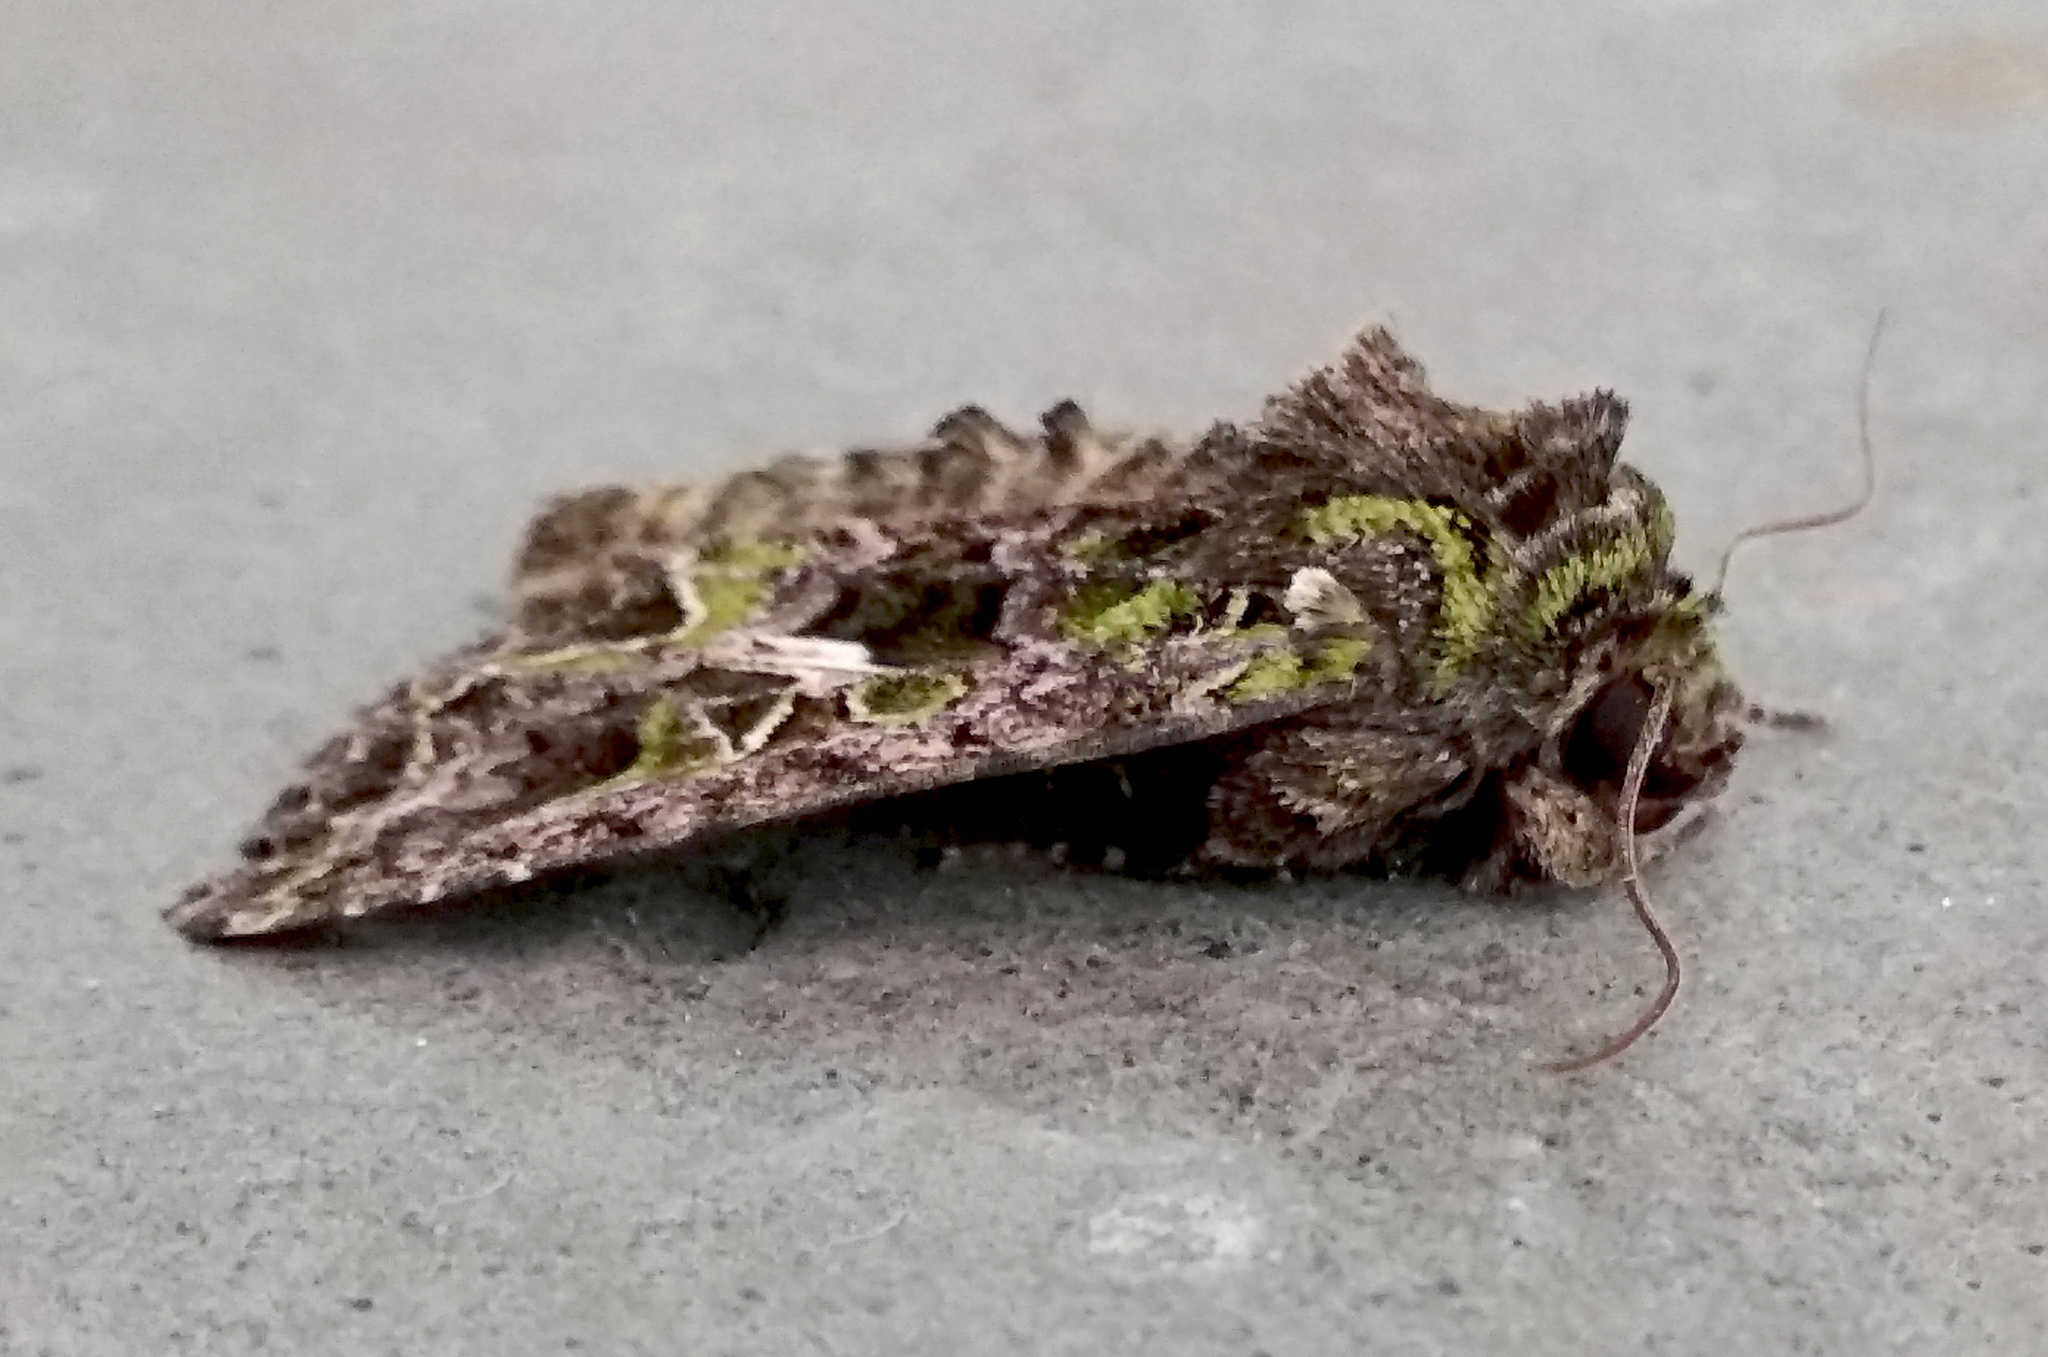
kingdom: Animalia
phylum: Arthropoda
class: Insecta
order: Lepidoptera
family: Noctuidae
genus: Trachea
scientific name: Trachea atriplicis
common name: Orache moth
